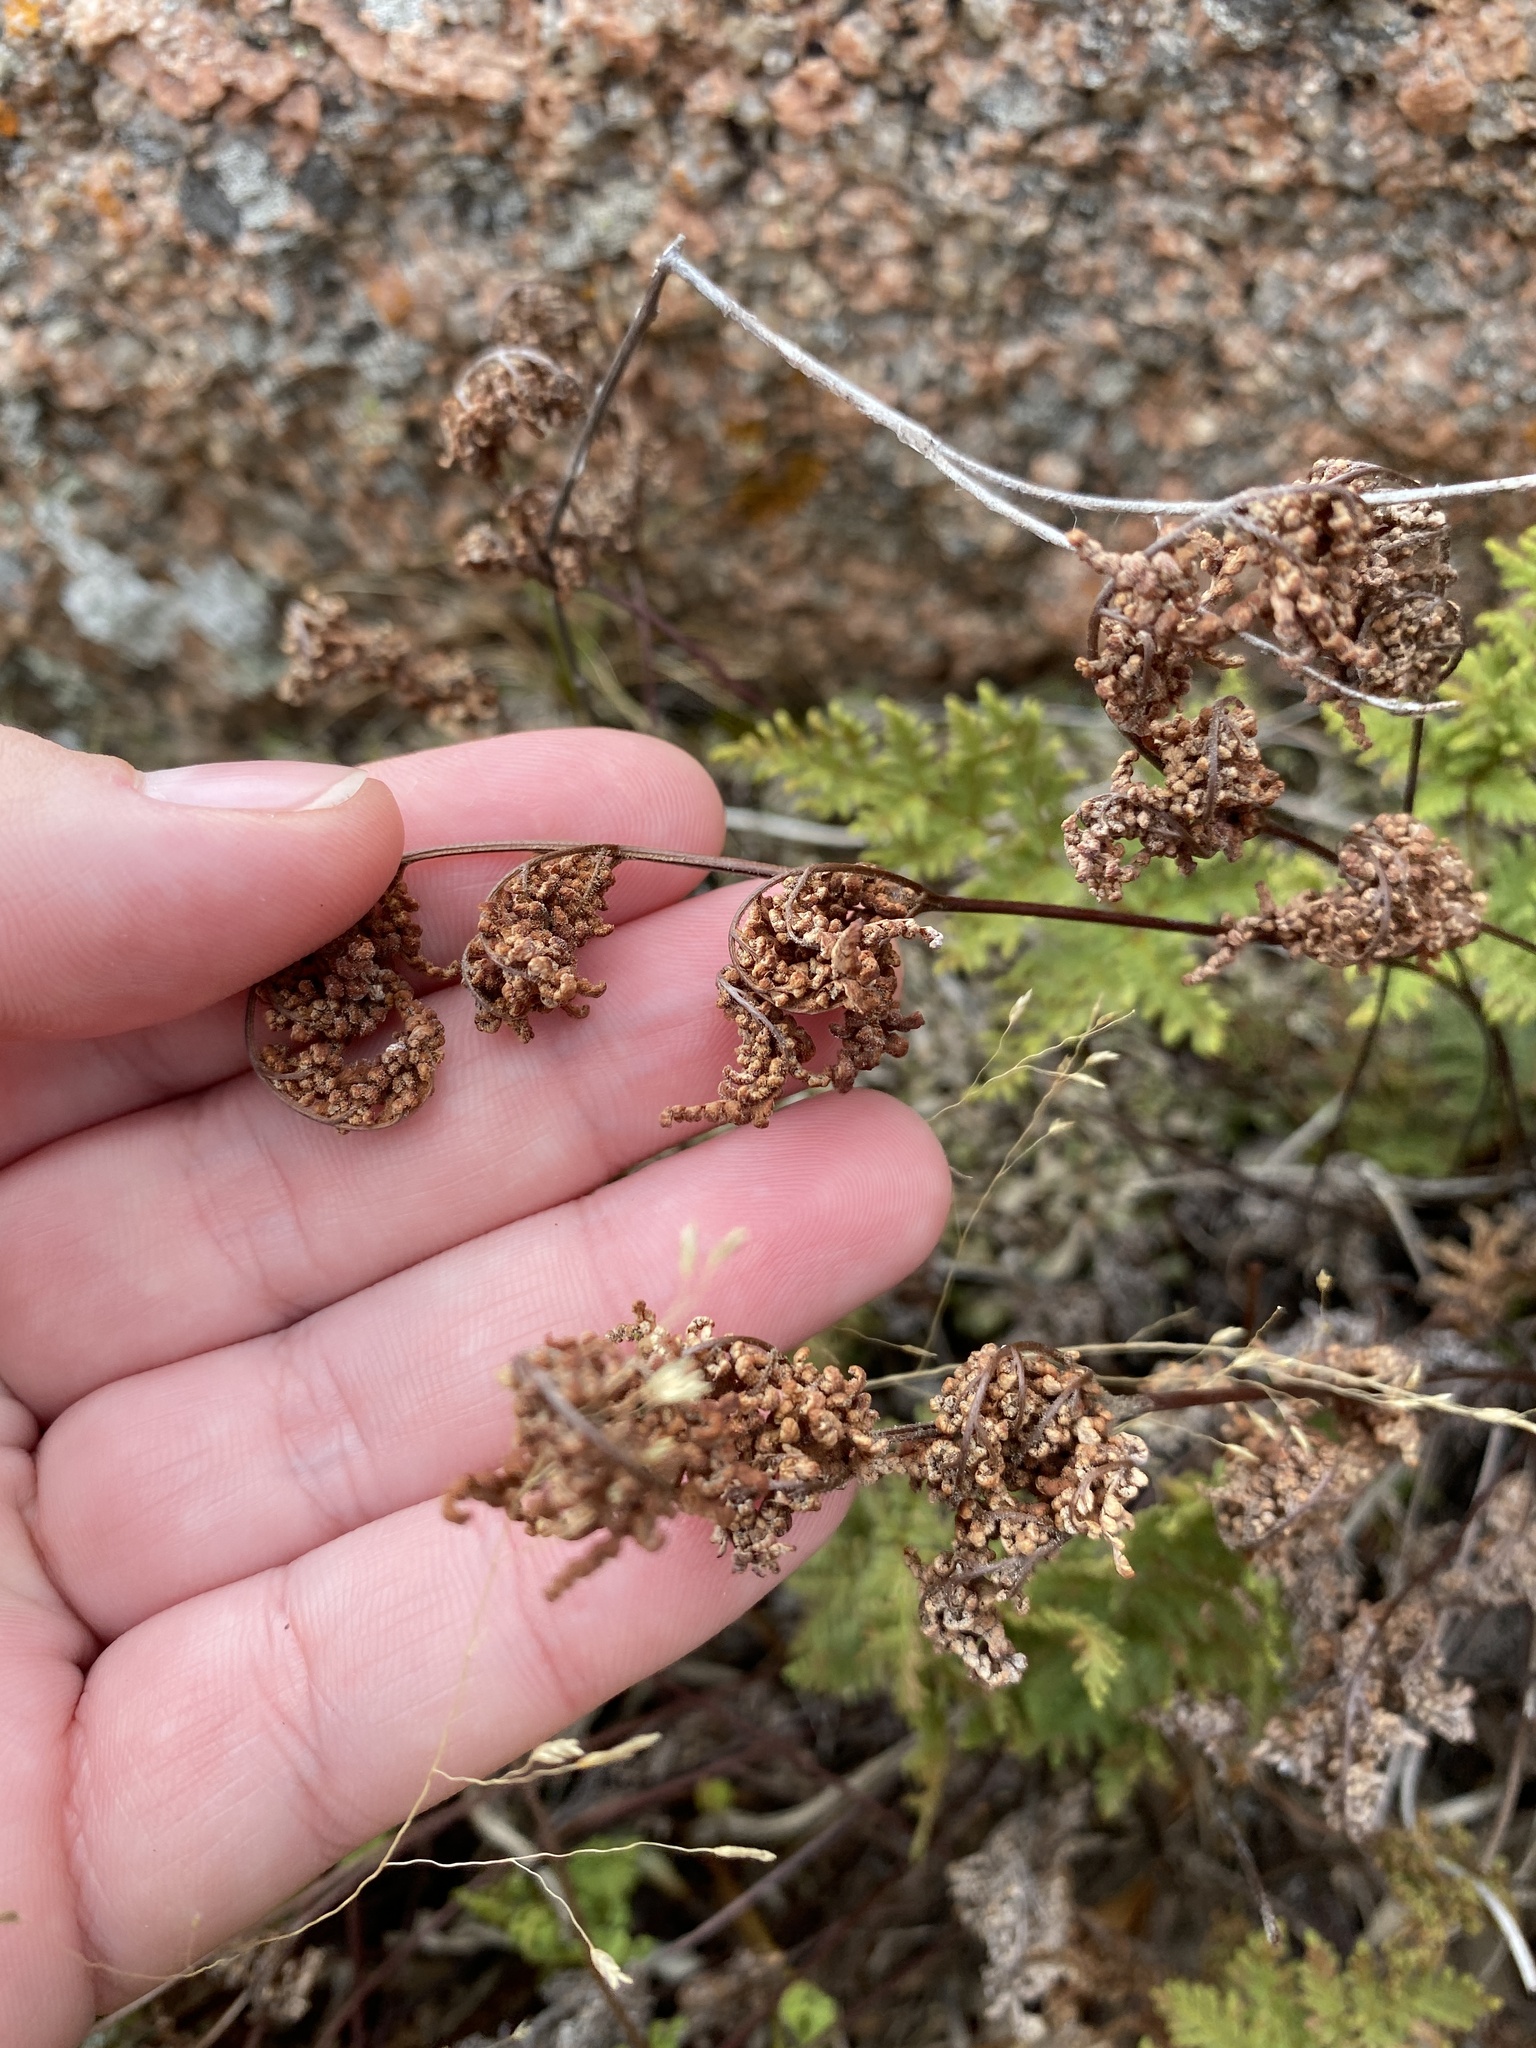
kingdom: Plantae
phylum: Tracheophyta
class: Polypodiopsida
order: Polypodiales
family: Pteridaceae
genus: Gaga
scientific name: Gaga kaulfussii
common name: Glandular lip fern
